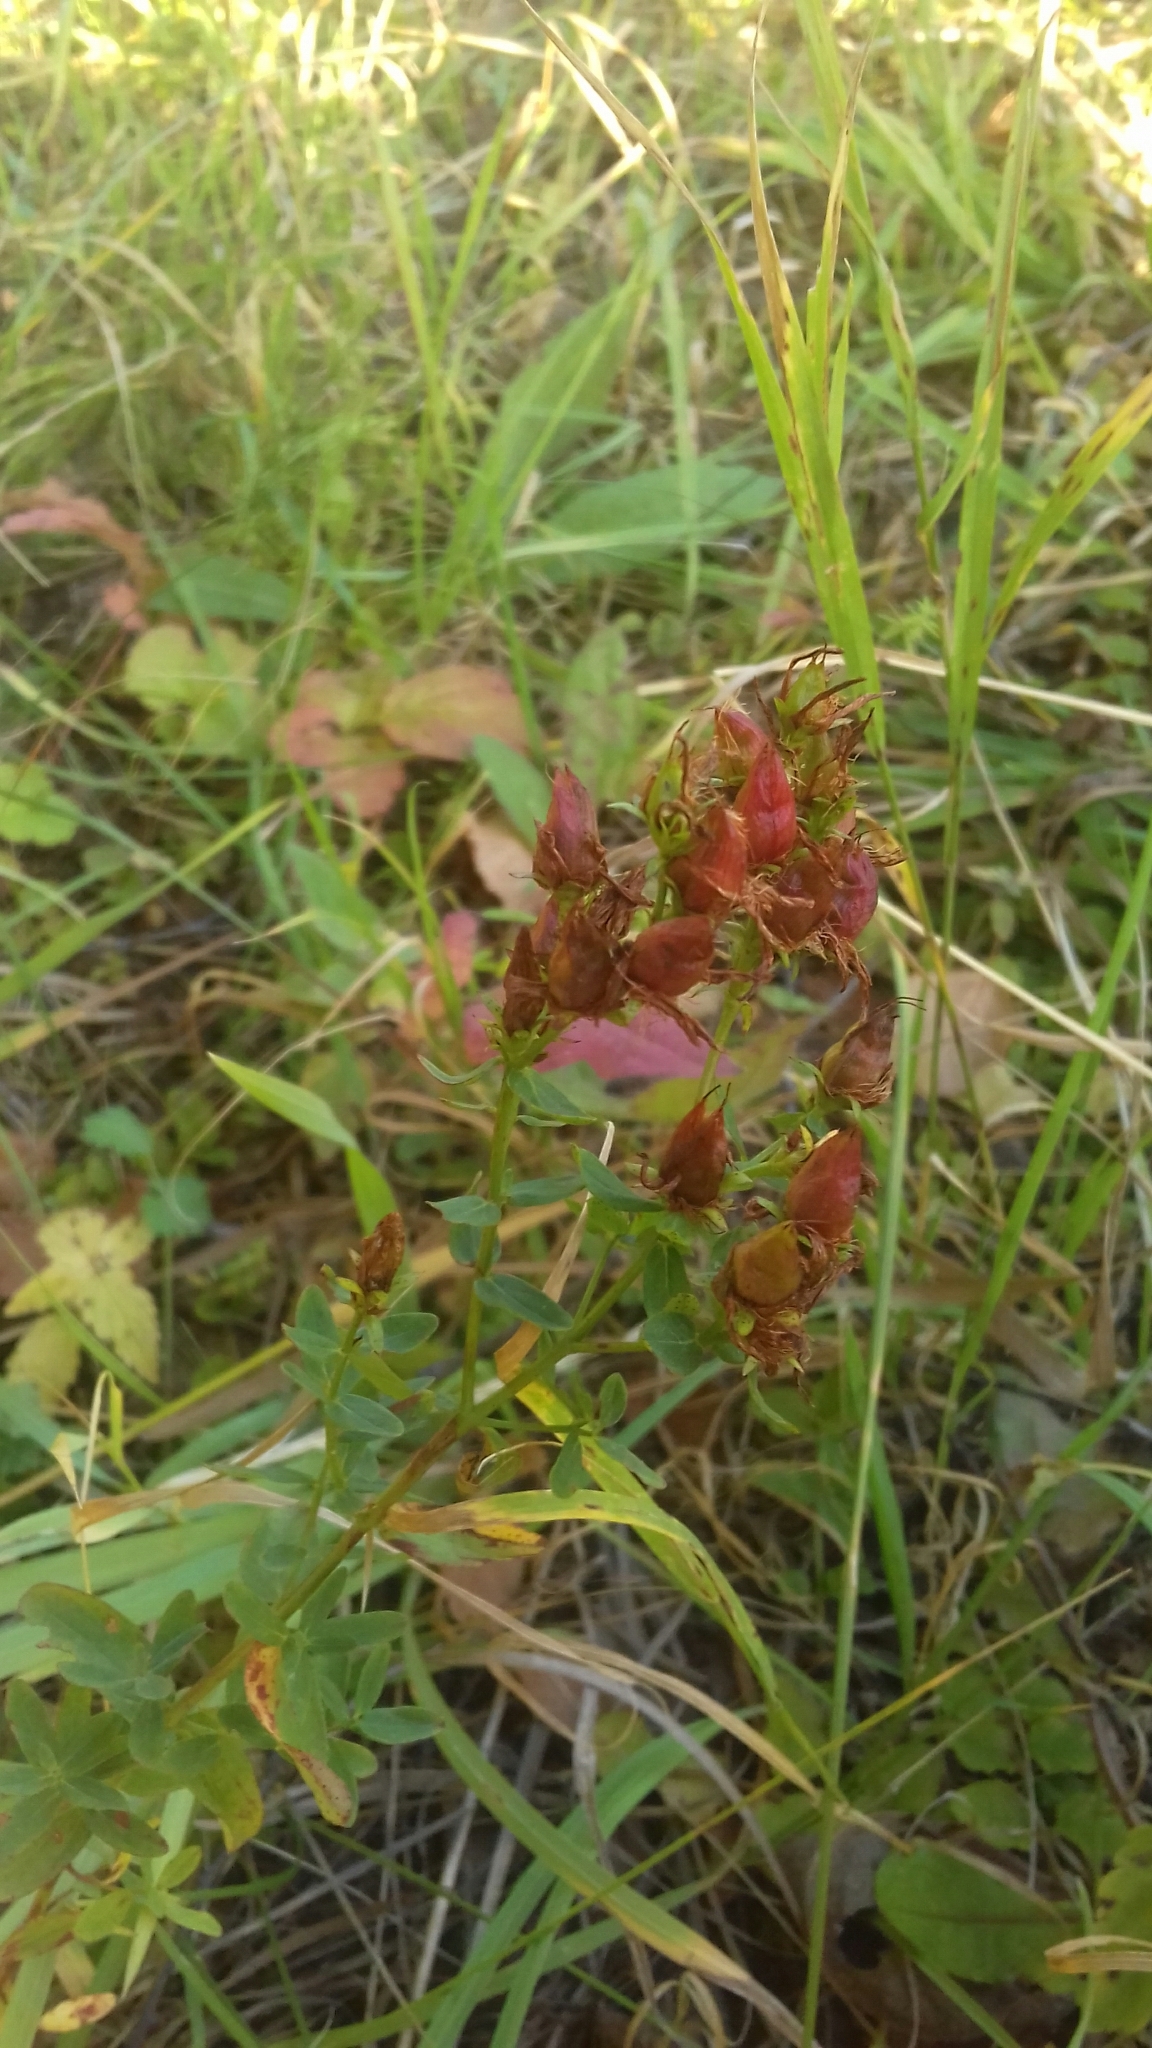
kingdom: Plantae
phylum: Tracheophyta
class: Magnoliopsida
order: Malpighiales
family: Hypericaceae
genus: Hypericum
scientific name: Hypericum perforatum
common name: Common st. johnswort
